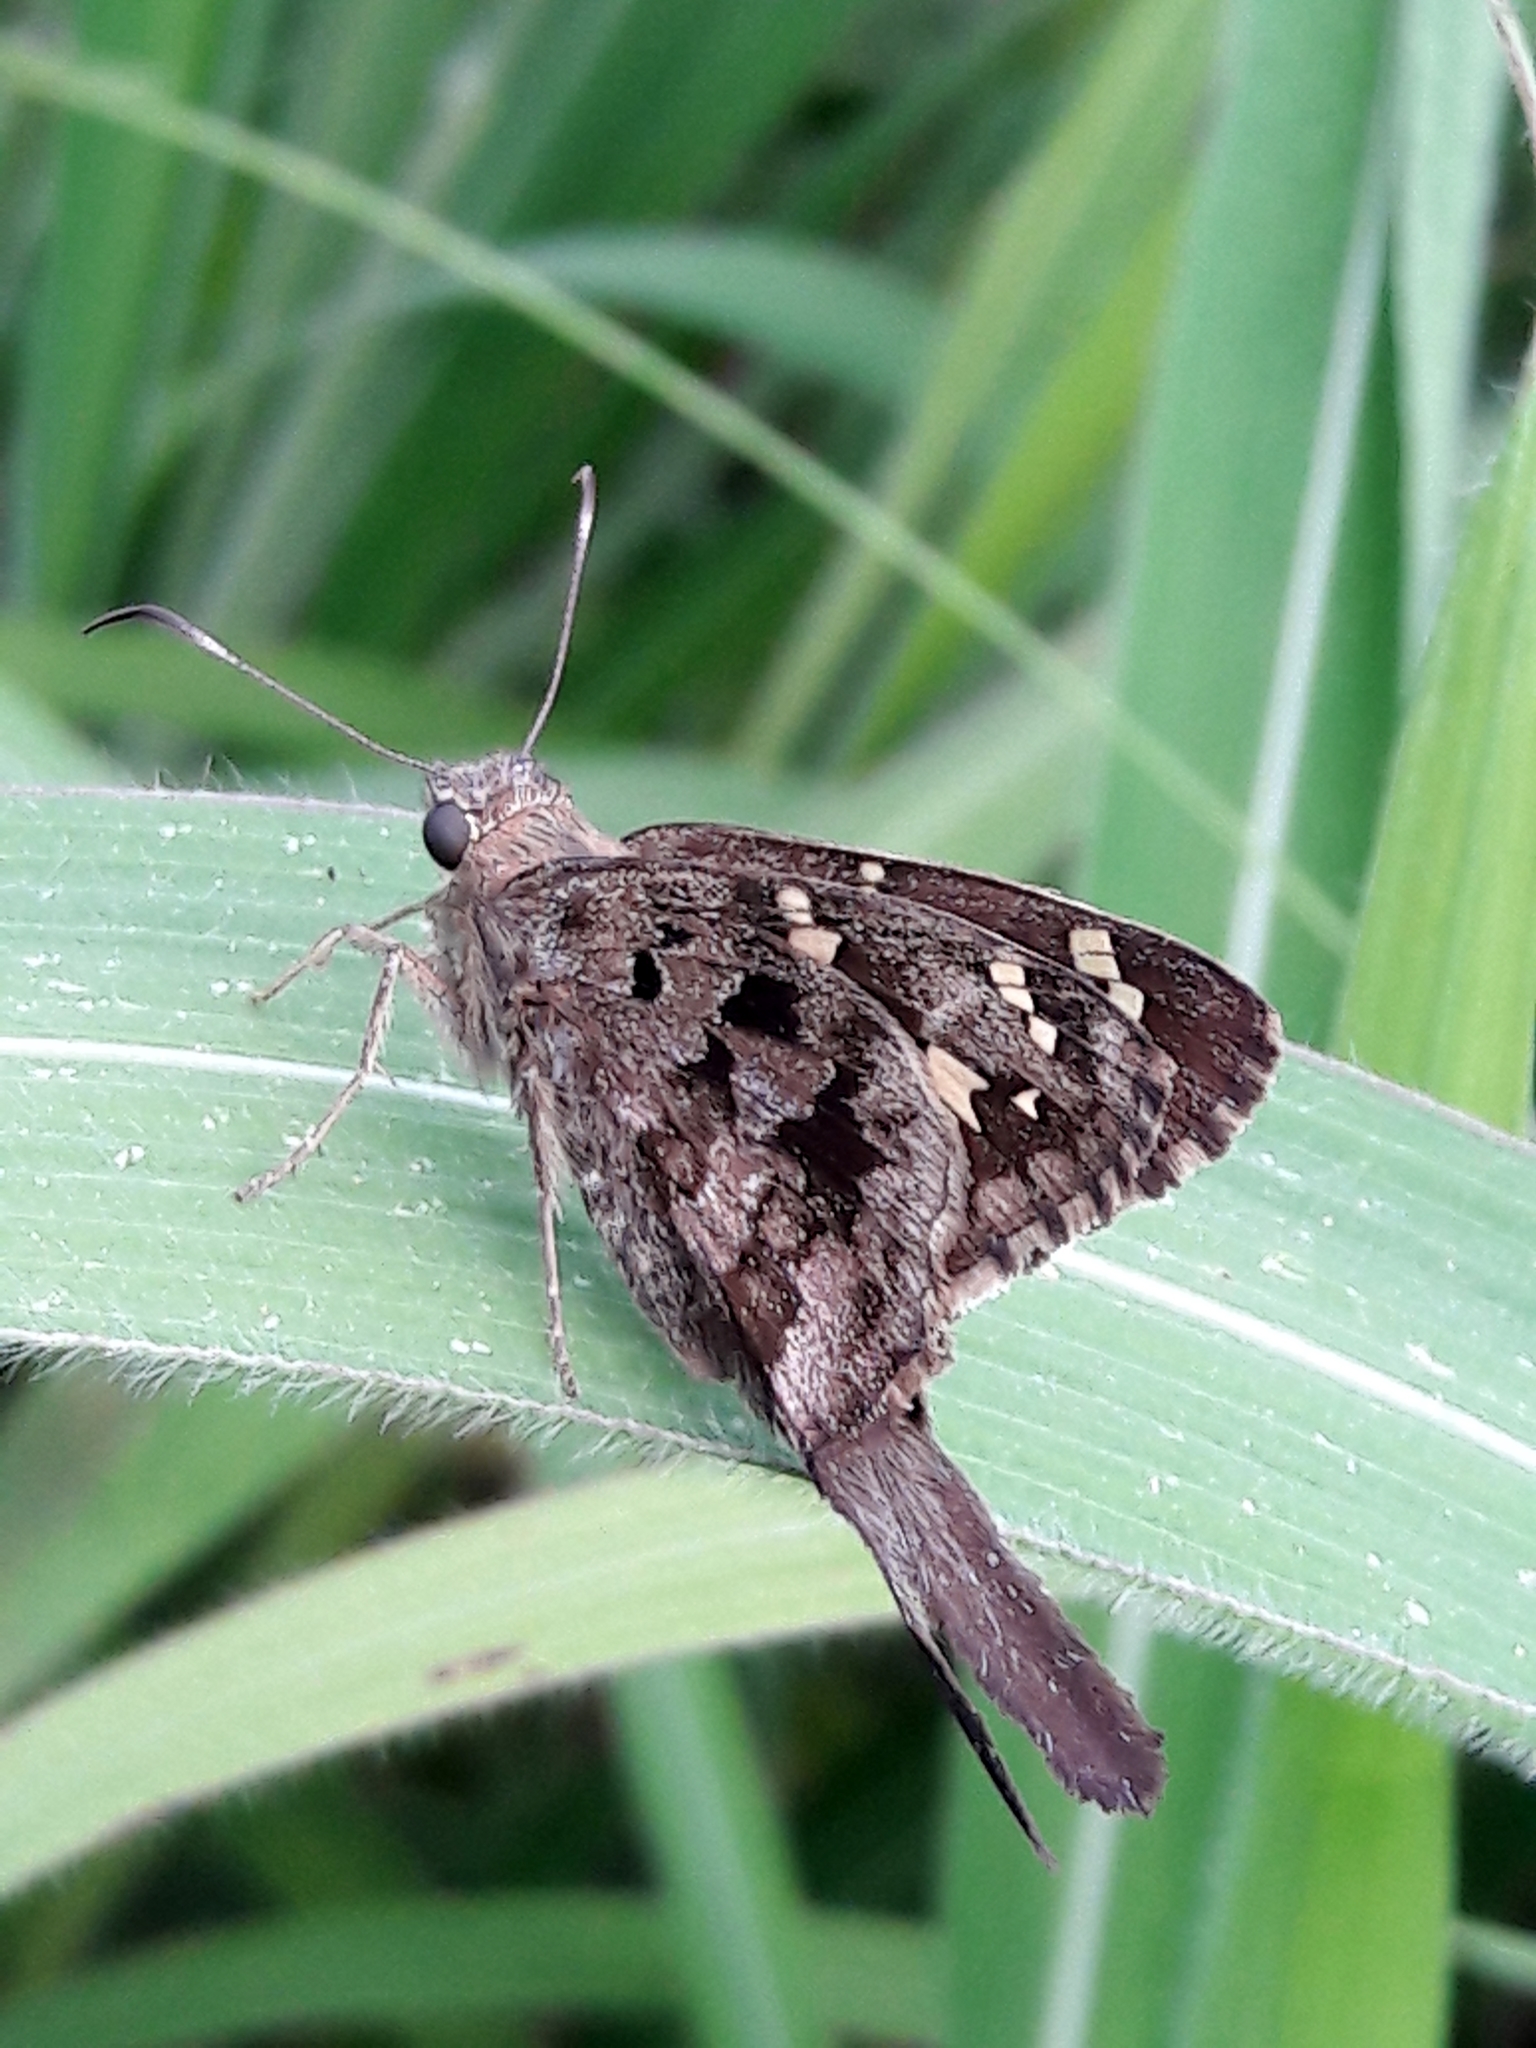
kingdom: Animalia
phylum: Arthropoda
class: Insecta
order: Lepidoptera
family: Hesperiidae
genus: Thorybes
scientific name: Thorybes
